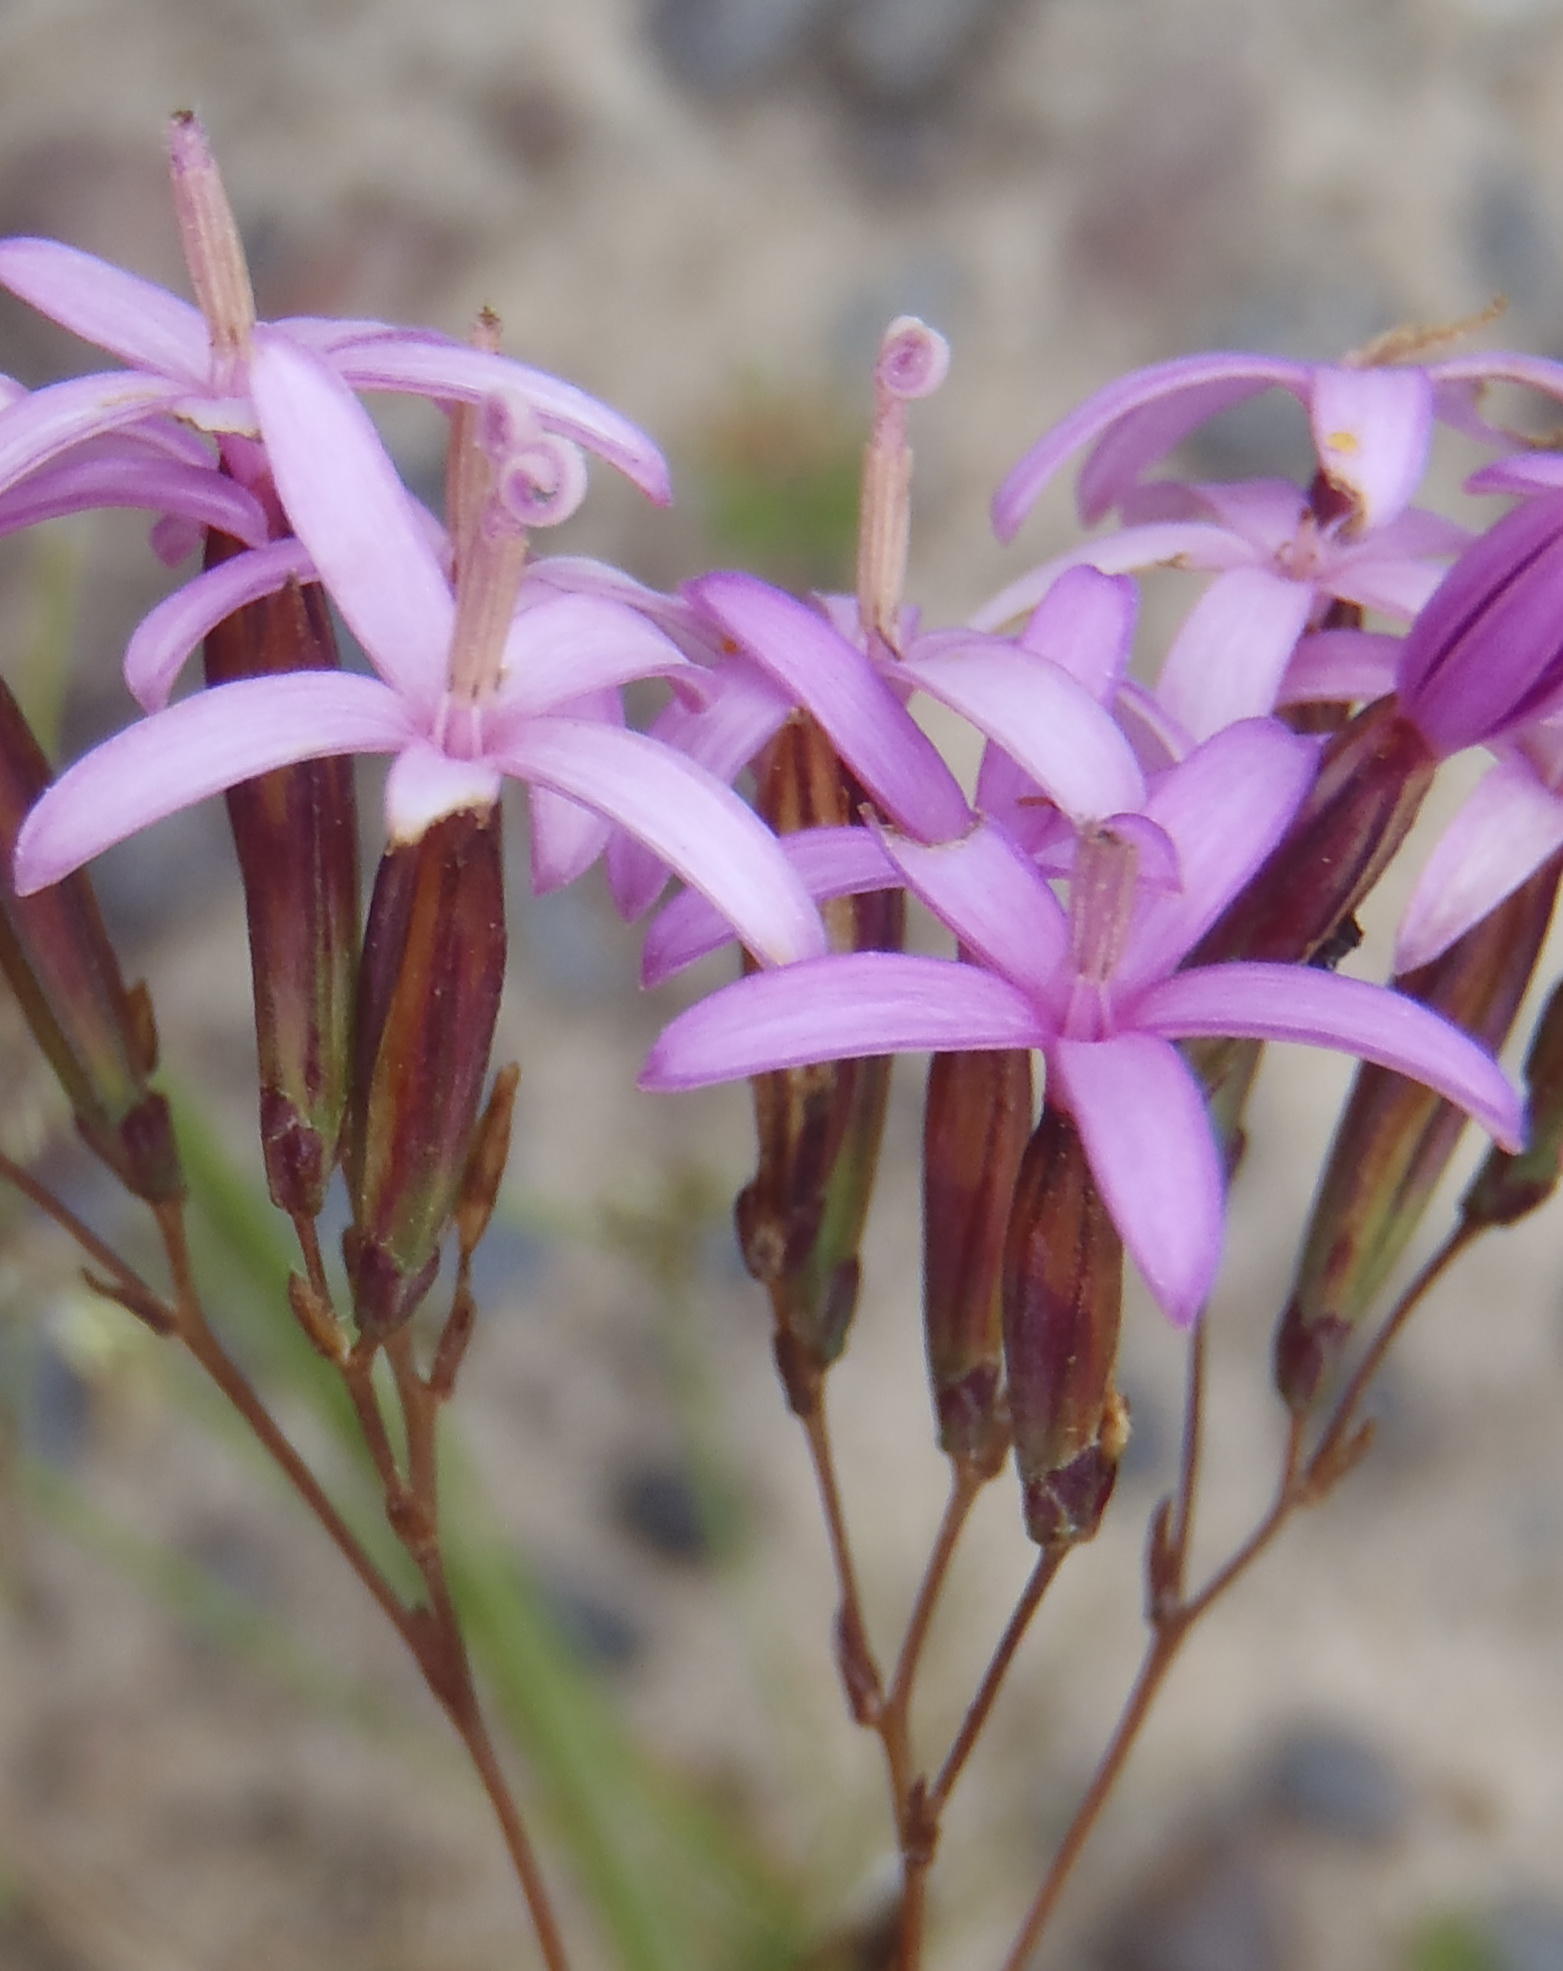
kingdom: Plantae
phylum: Tracheophyta
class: Magnoliopsida
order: Asterales
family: Asteraceae
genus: Corymbium
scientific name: Corymbium glabrum
